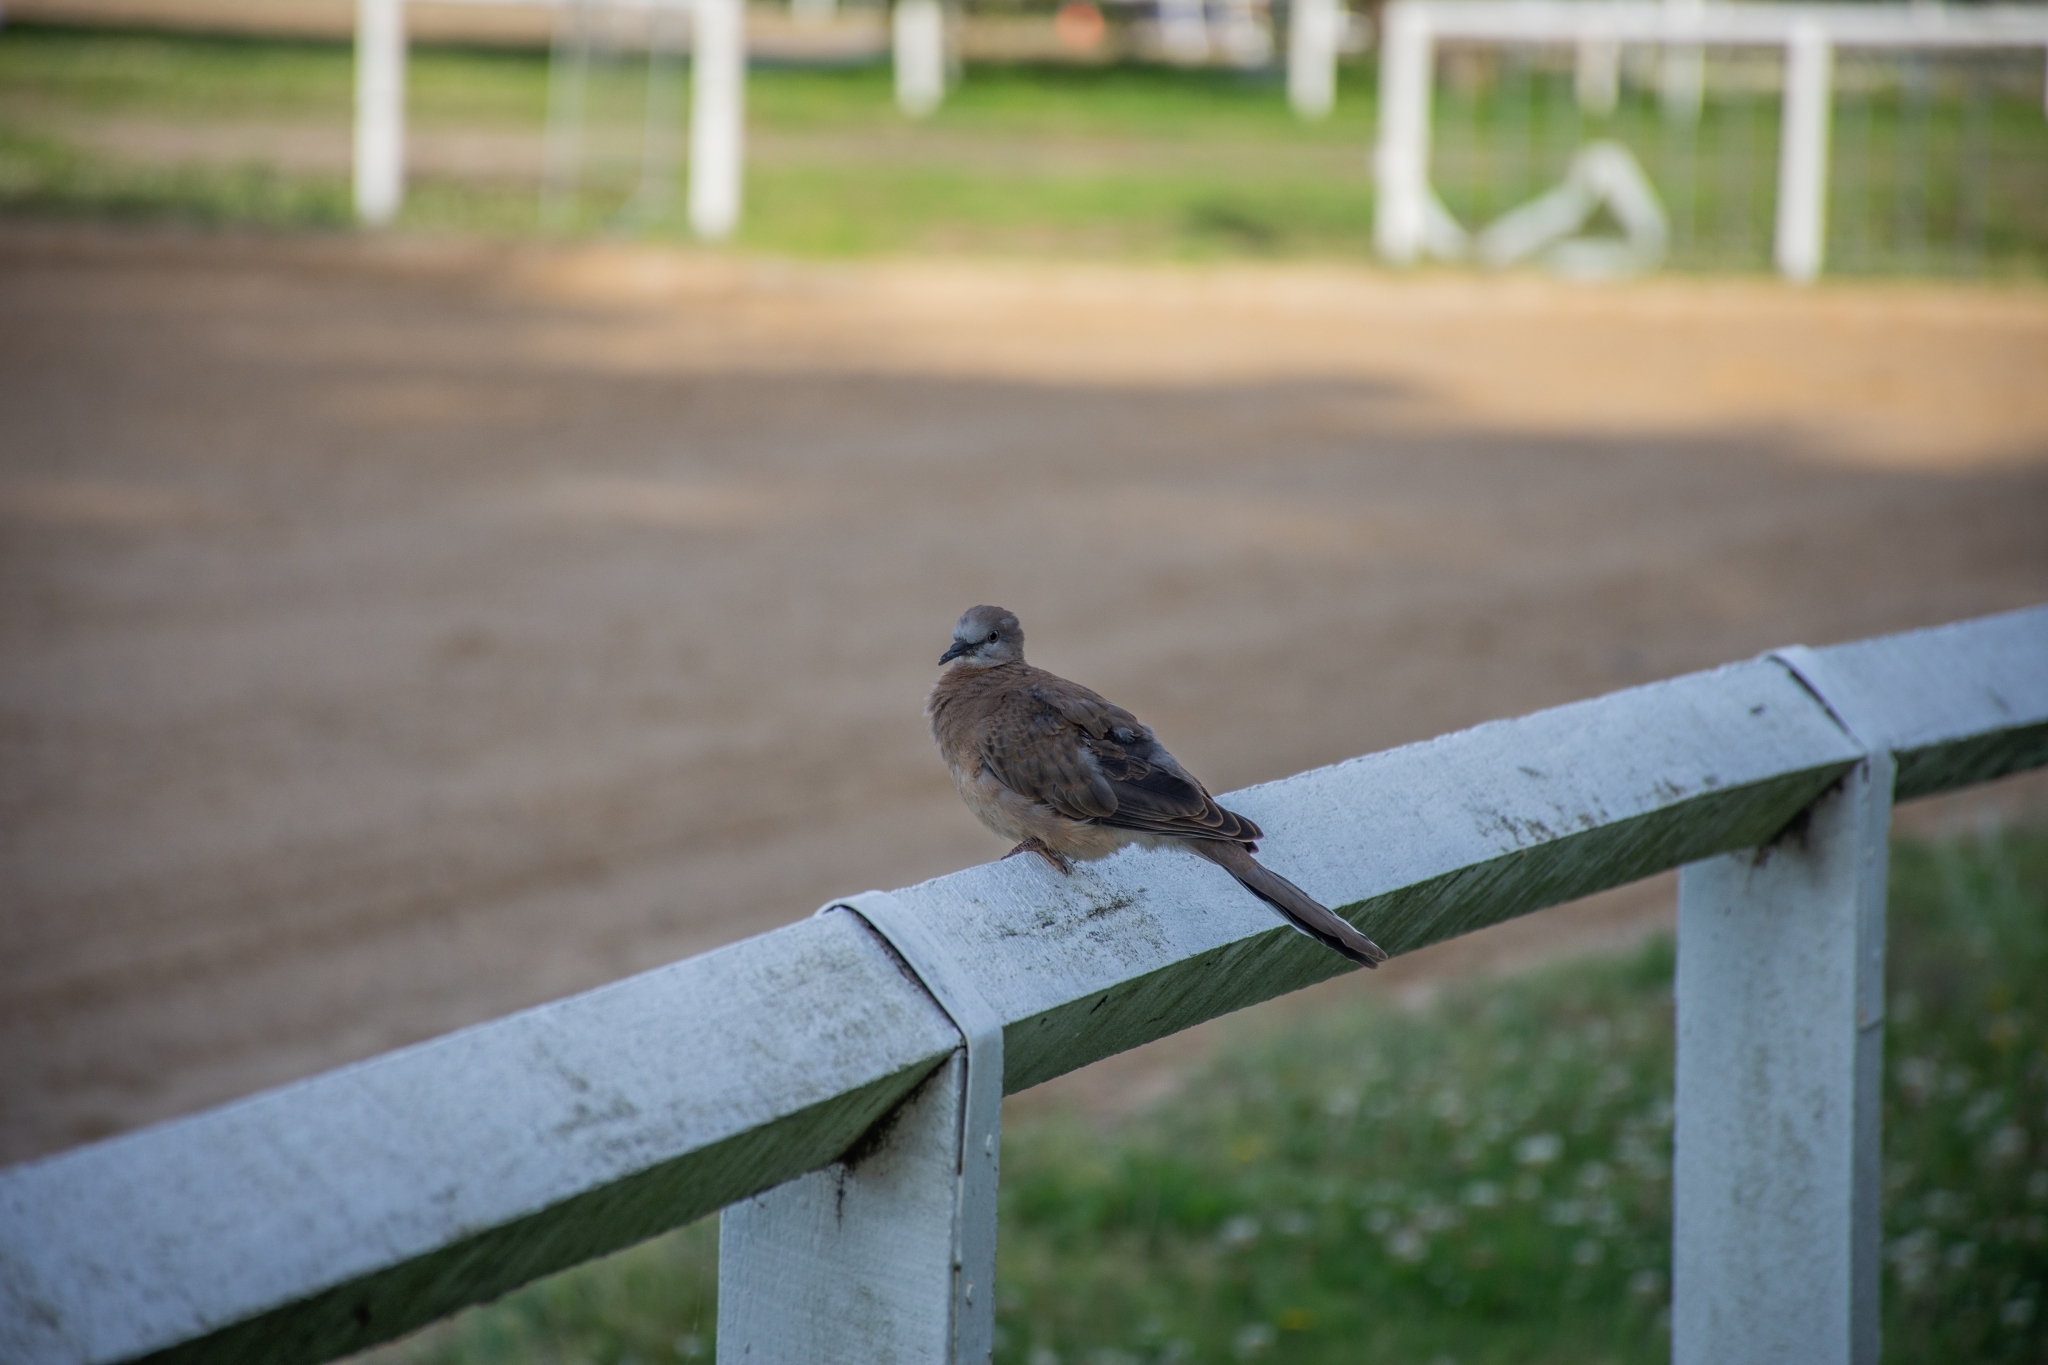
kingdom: Animalia
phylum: Chordata
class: Aves
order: Columbiformes
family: Columbidae
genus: Spilopelia
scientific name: Spilopelia chinensis
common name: Spotted dove
